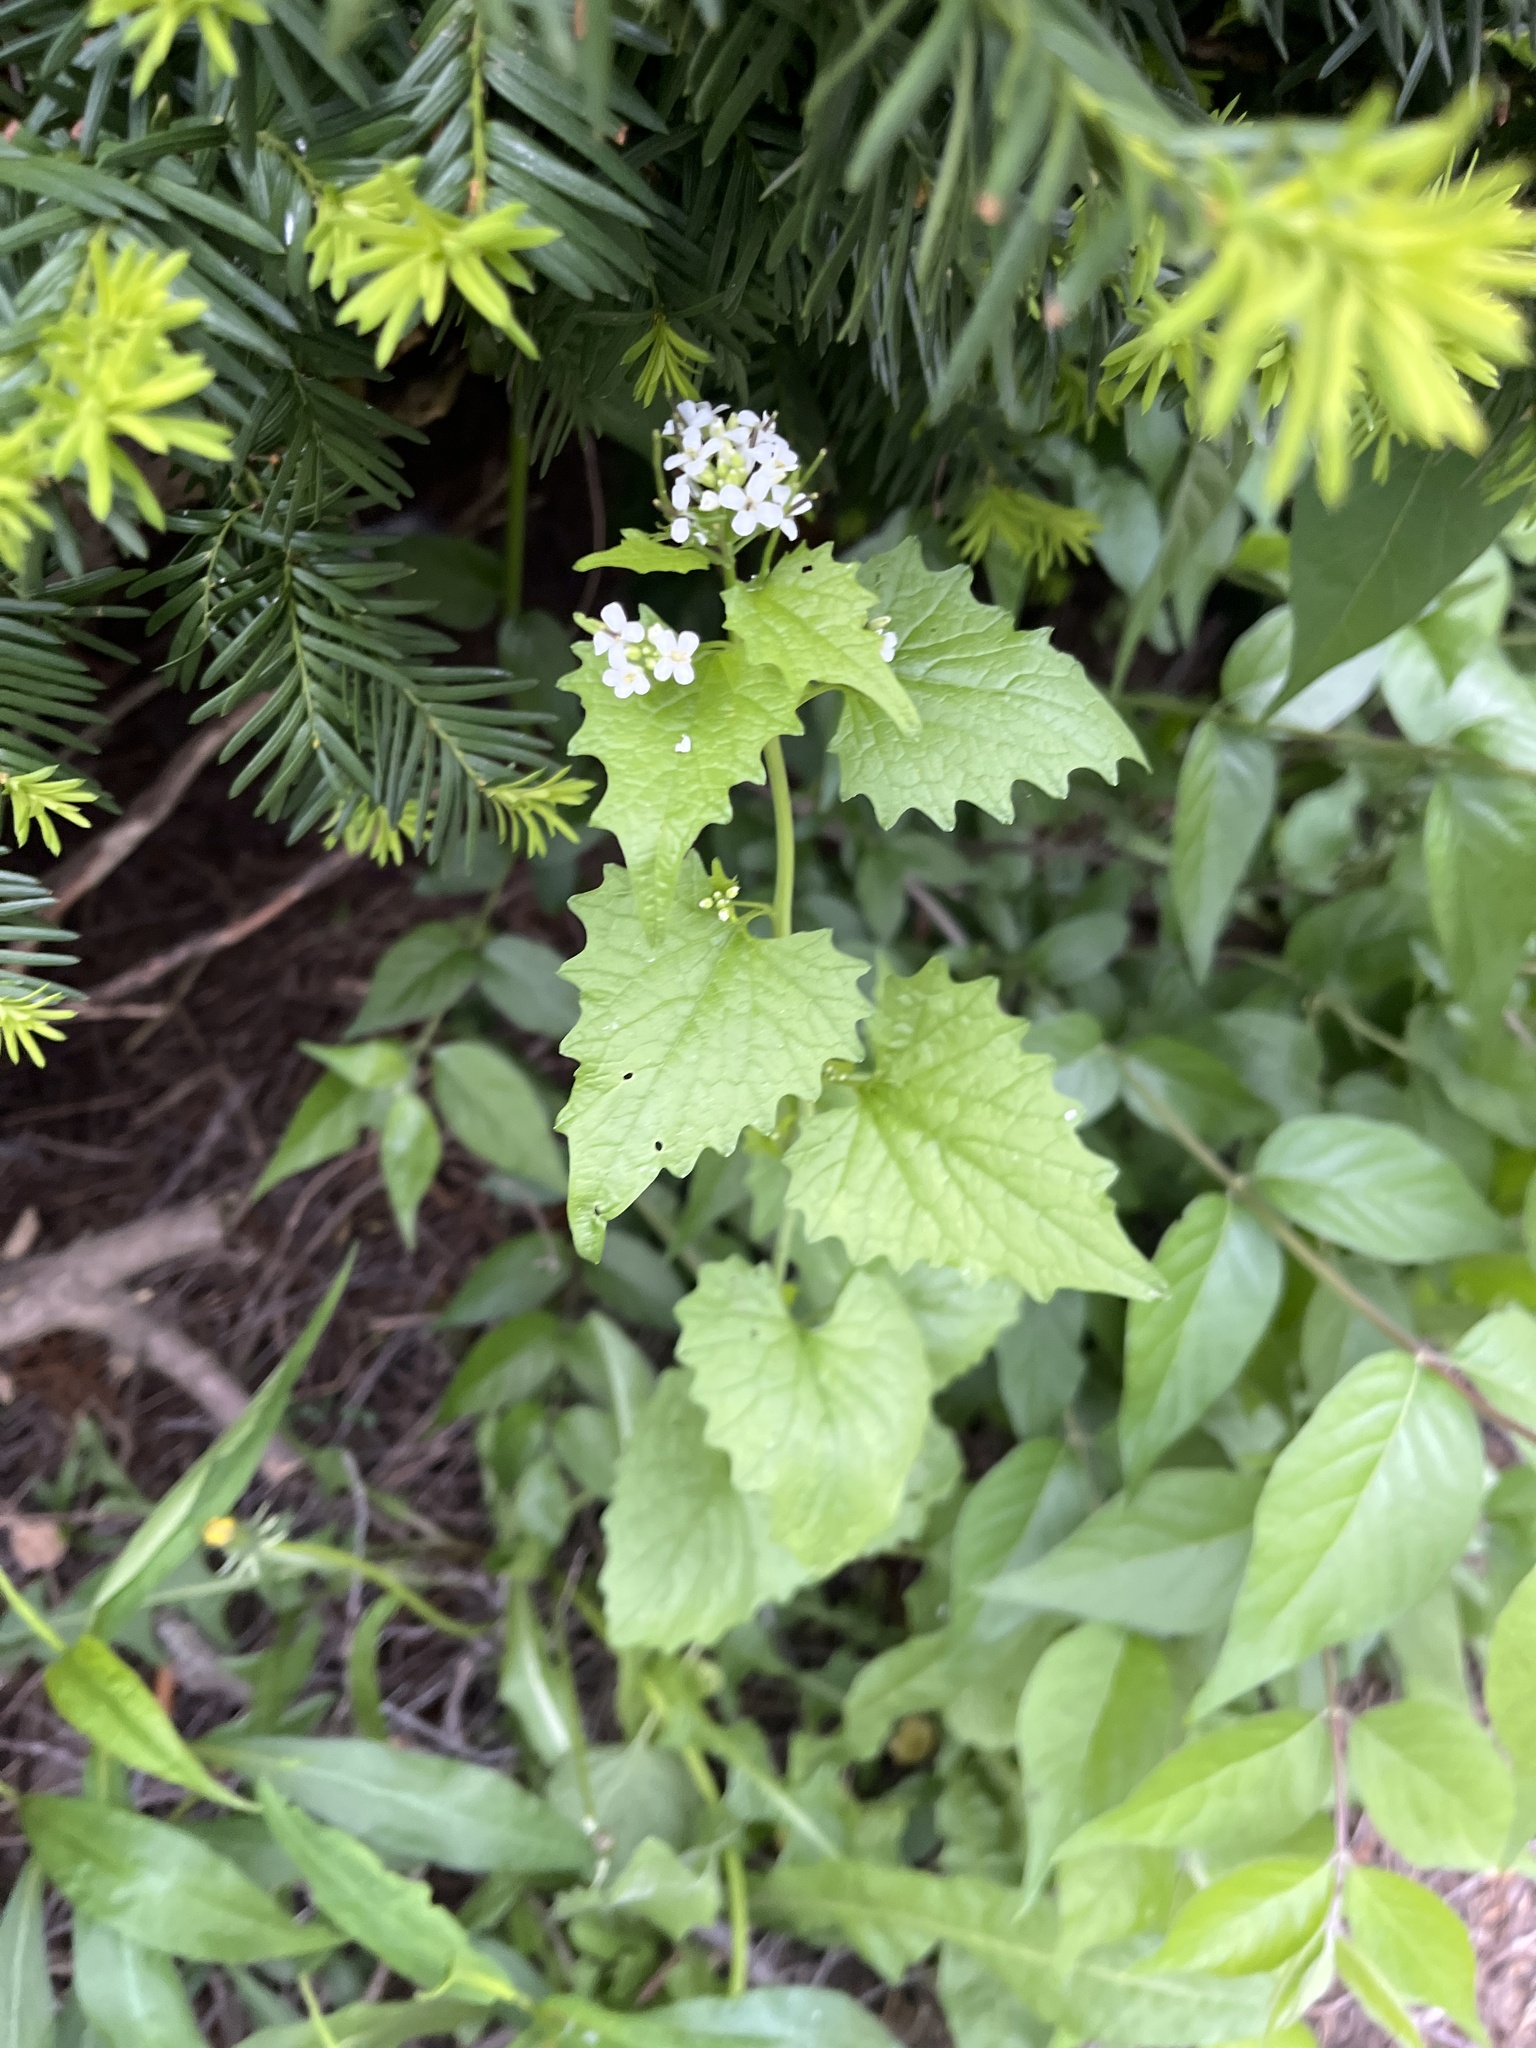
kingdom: Plantae
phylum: Tracheophyta
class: Magnoliopsida
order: Brassicales
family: Brassicaceae
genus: Alliaria
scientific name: Alliaria petiolata
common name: Garlic mustard
